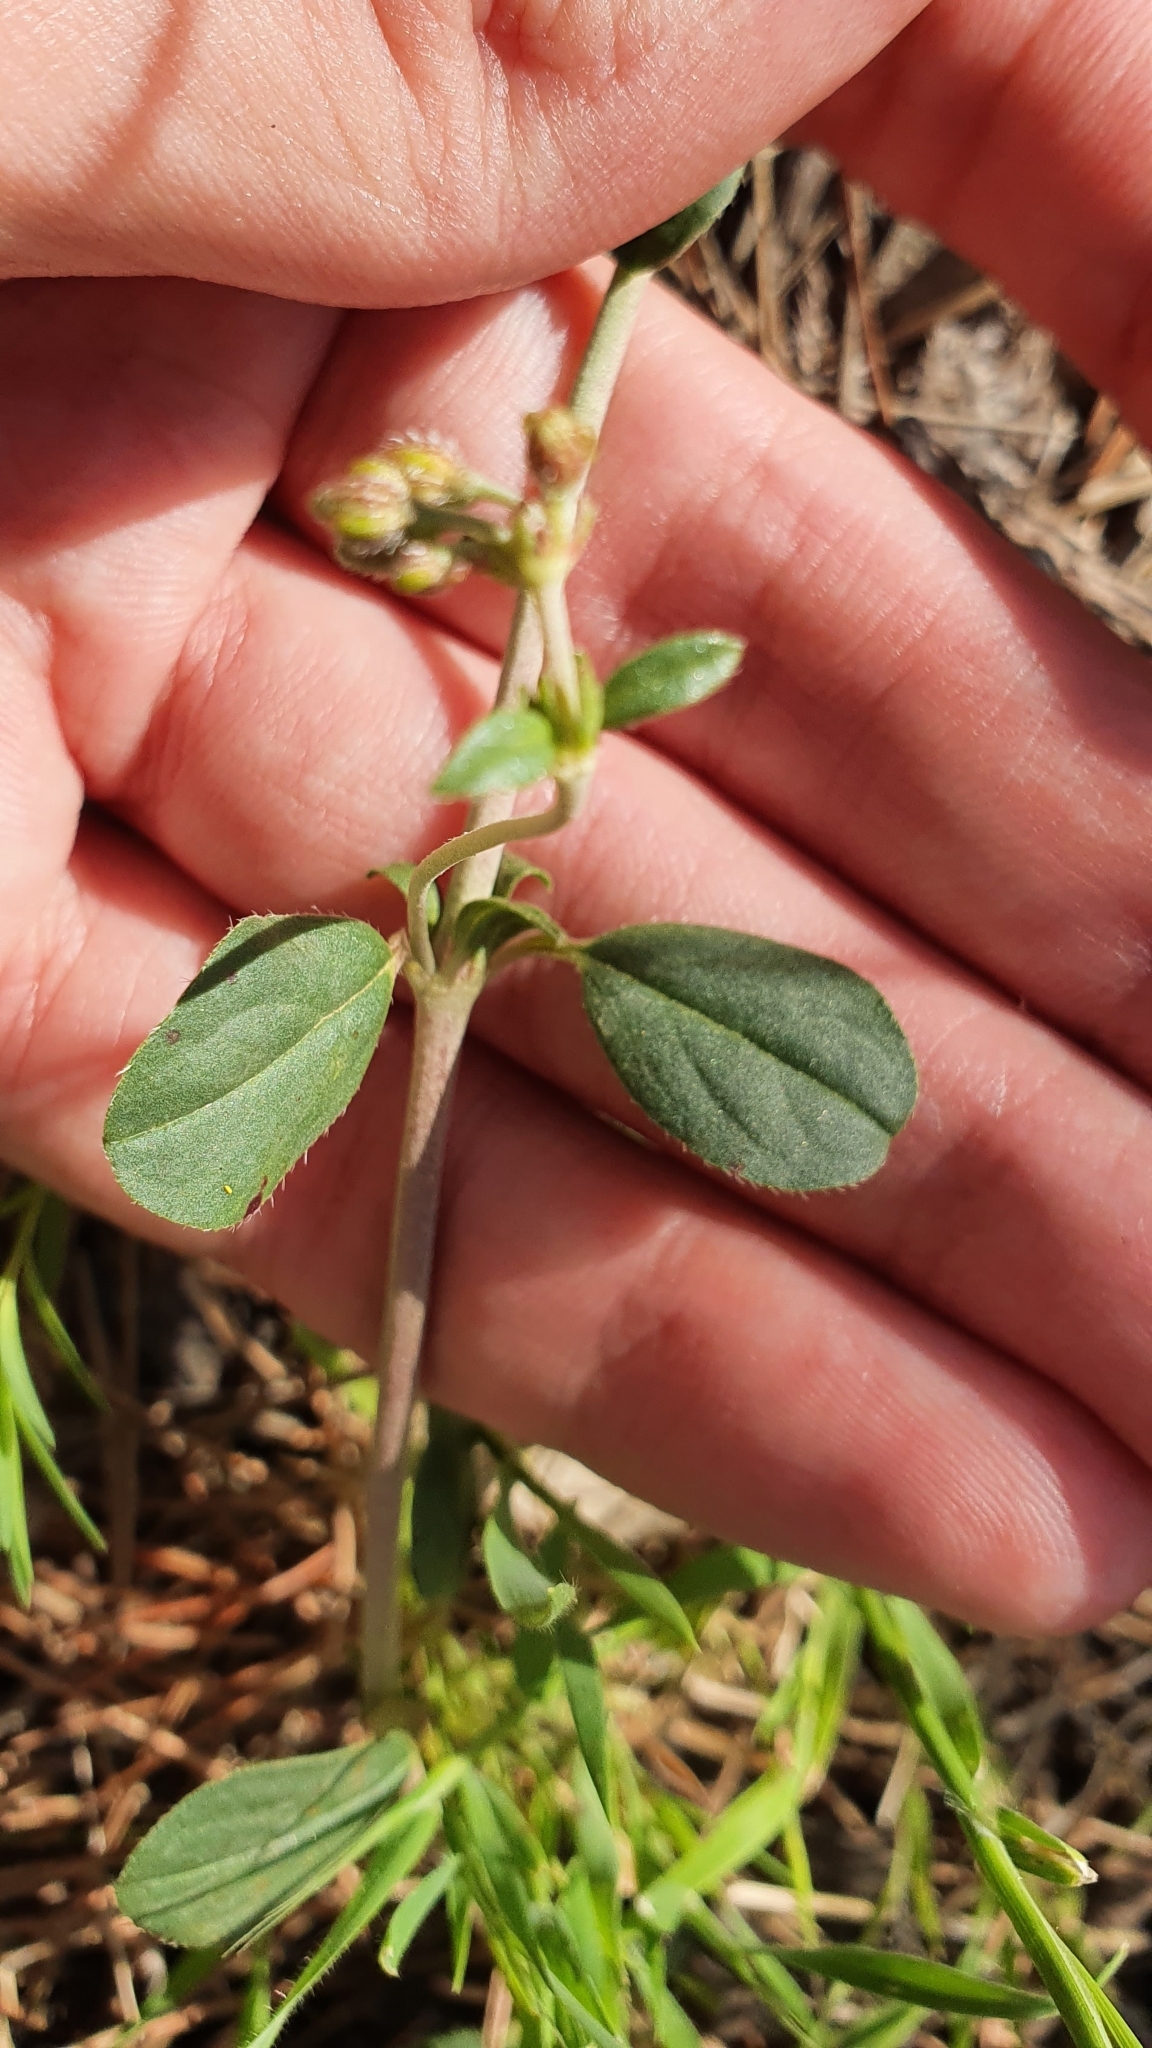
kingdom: Plantae
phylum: Tracheophyta
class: Magnoliopsida
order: Malvales
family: Cistaceae
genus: Helianthemum
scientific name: Helianthemum cinereum
